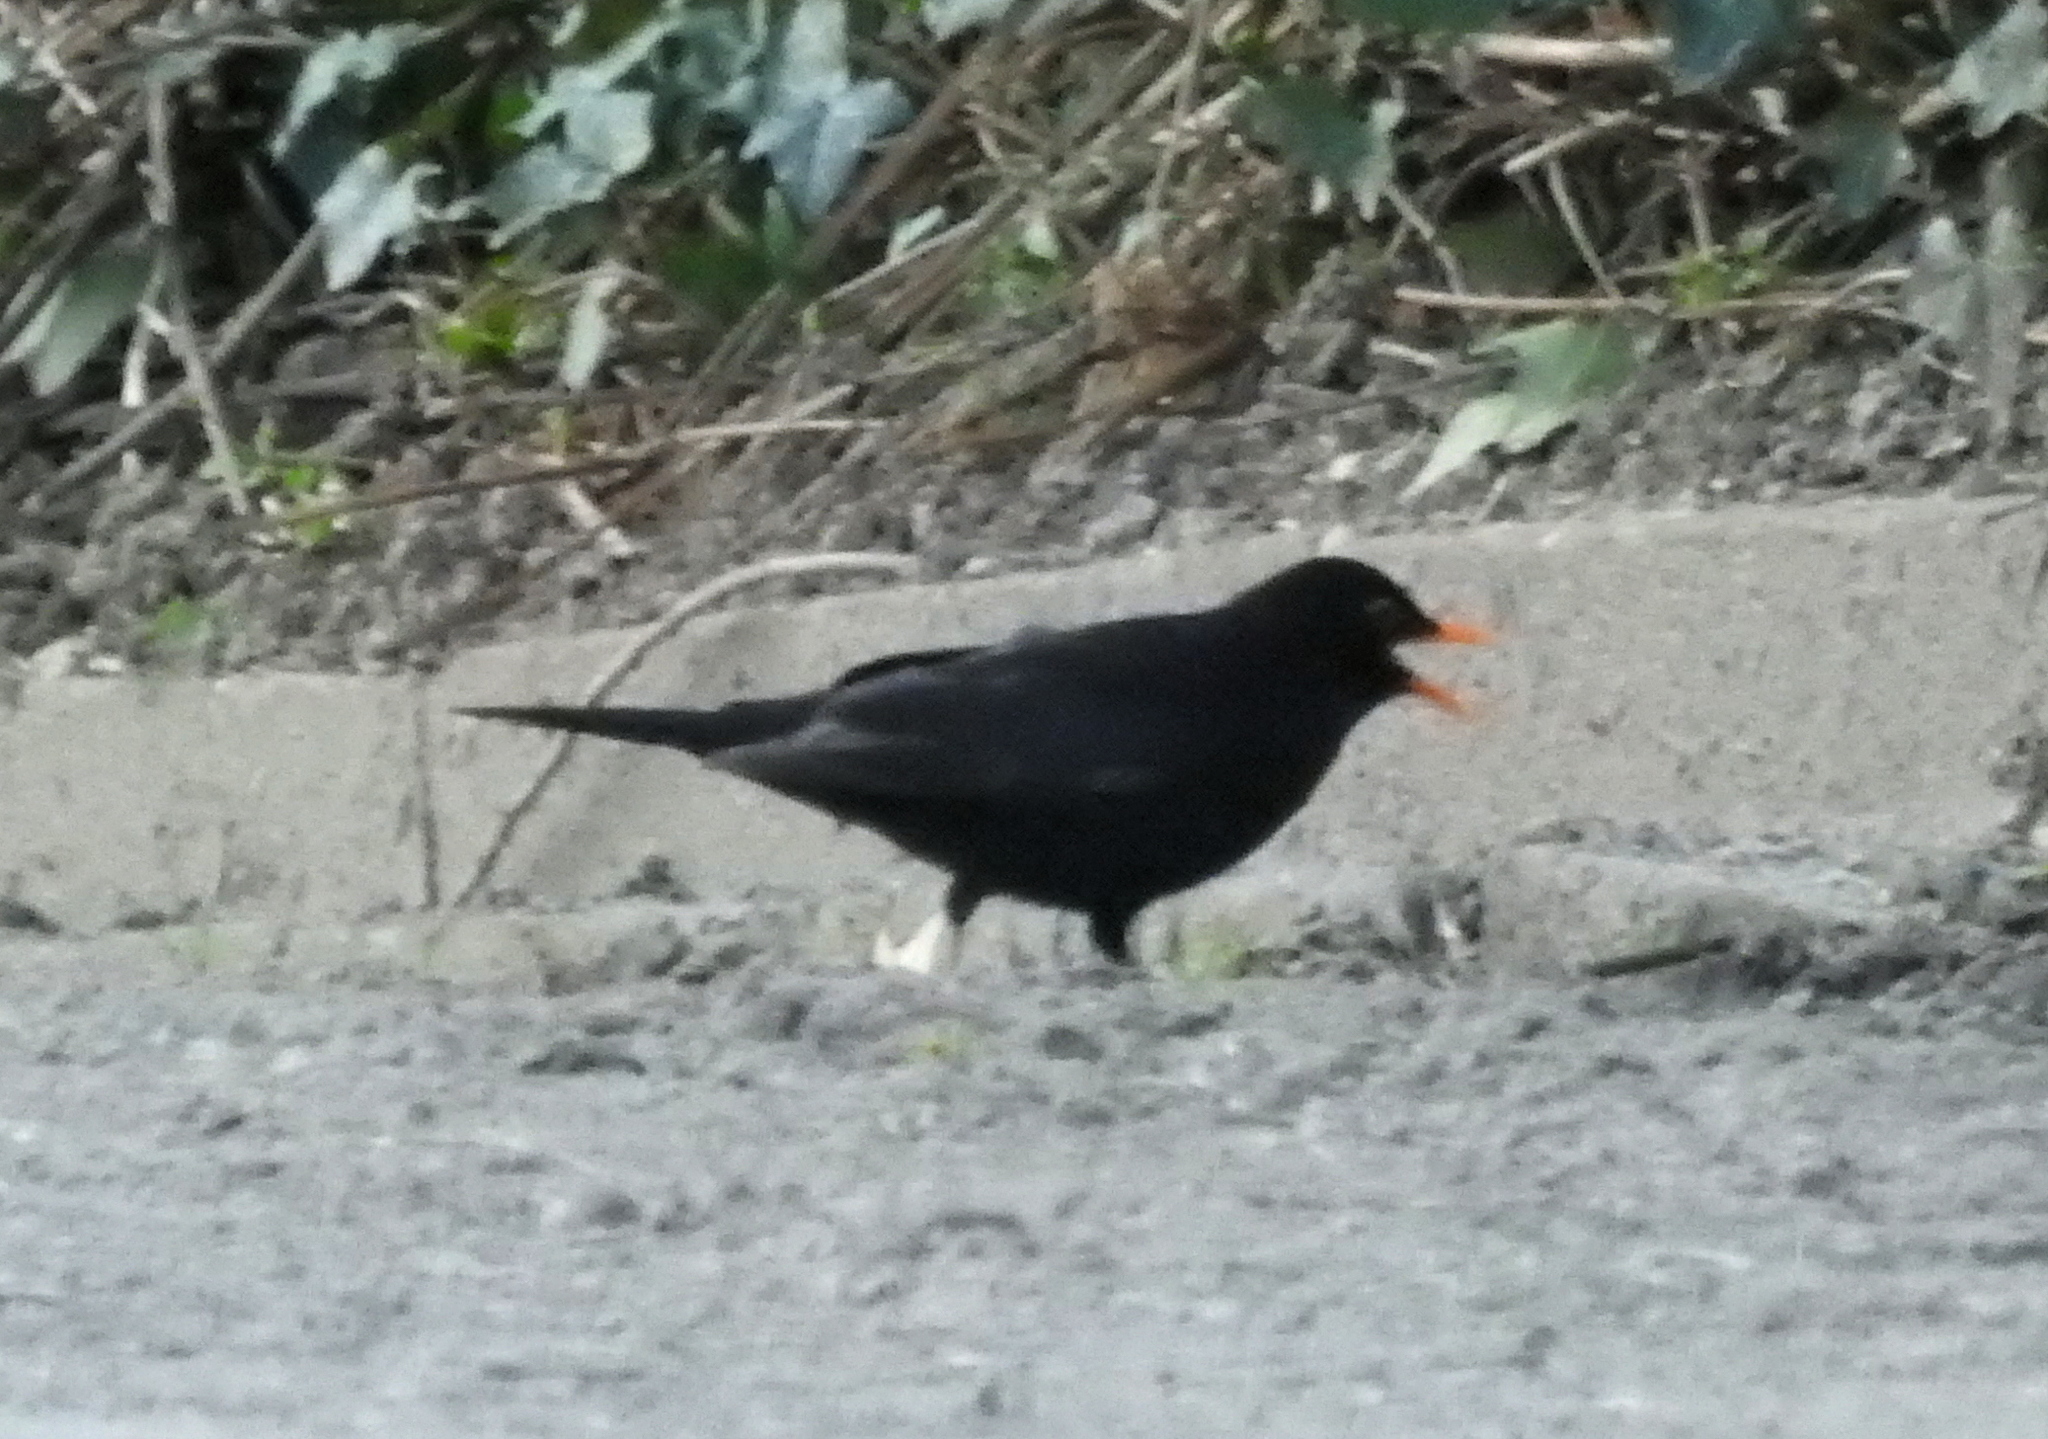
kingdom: Animalia
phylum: Chordata
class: Aves
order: Passeriformes
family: Turdidae
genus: Turdus
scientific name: Turdus merula
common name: Common blackbird
